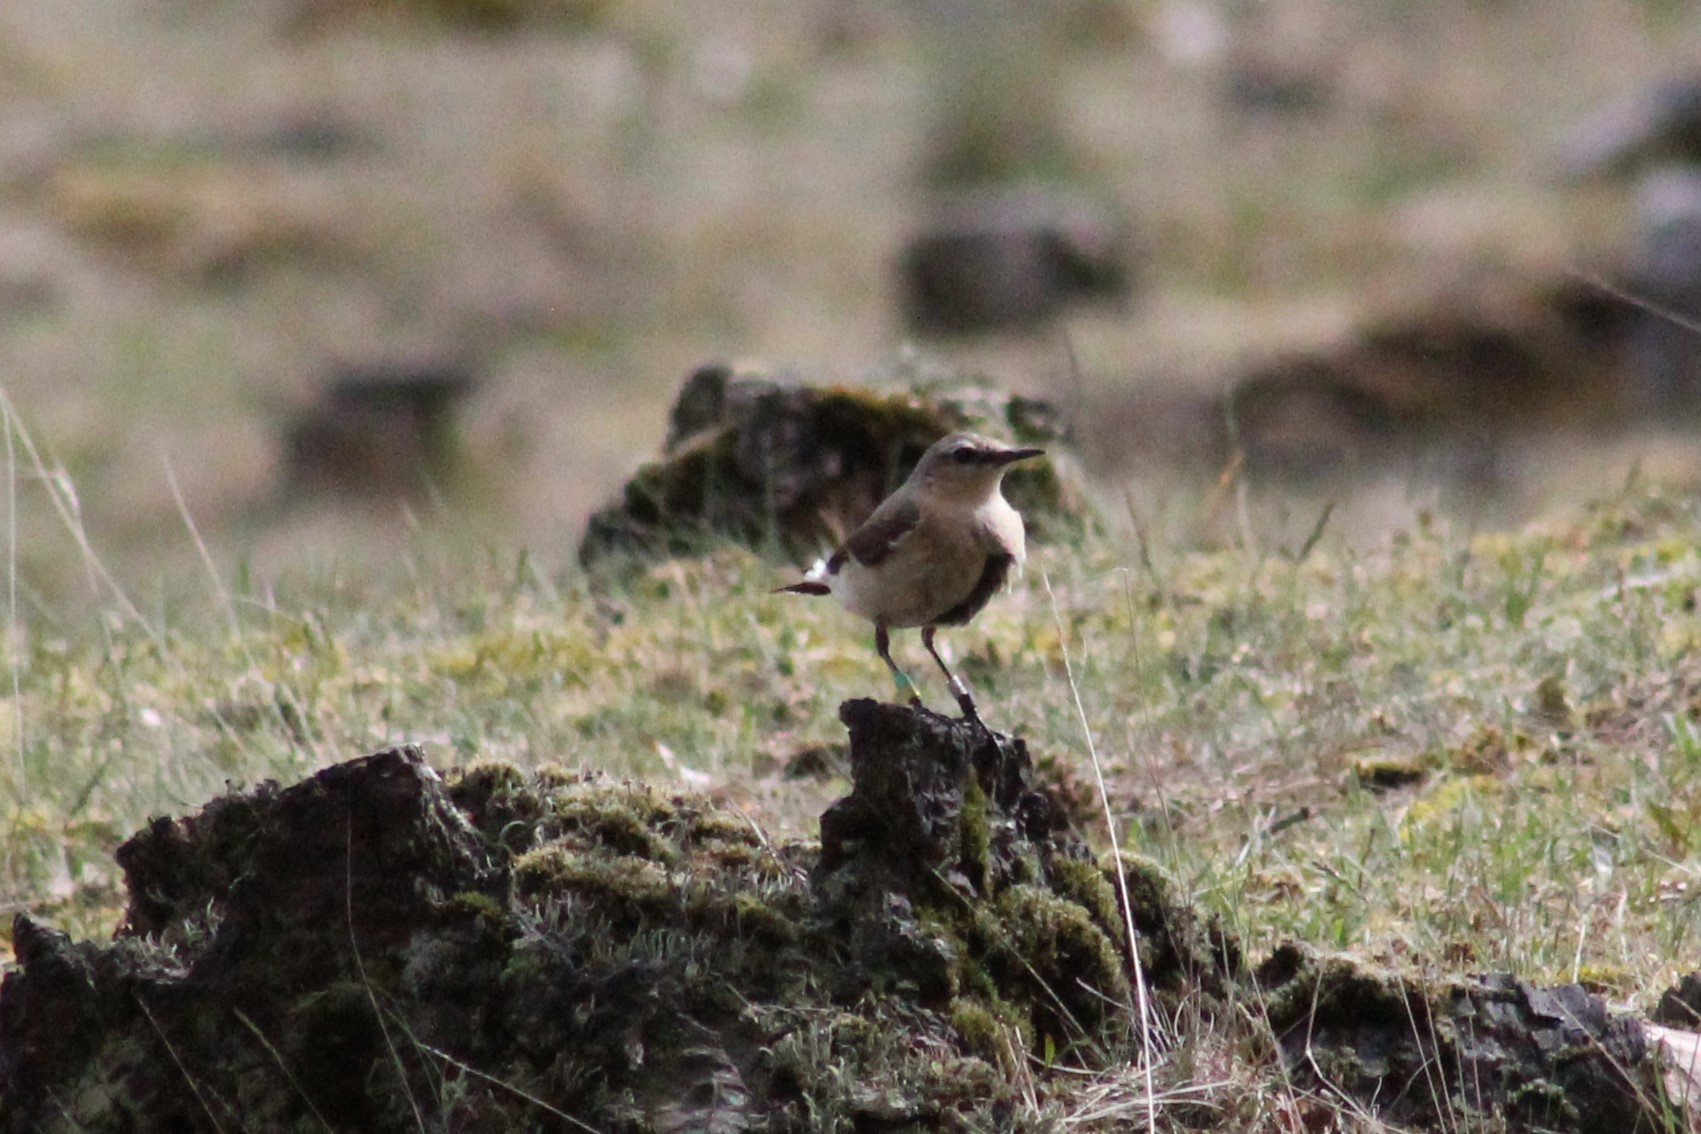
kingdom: Animalia
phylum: Chordata
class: Aves
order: Passeriformes
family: Muscicapidae
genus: Oenanthe
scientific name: Oenanthe oenanthe
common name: Northern wheatear
